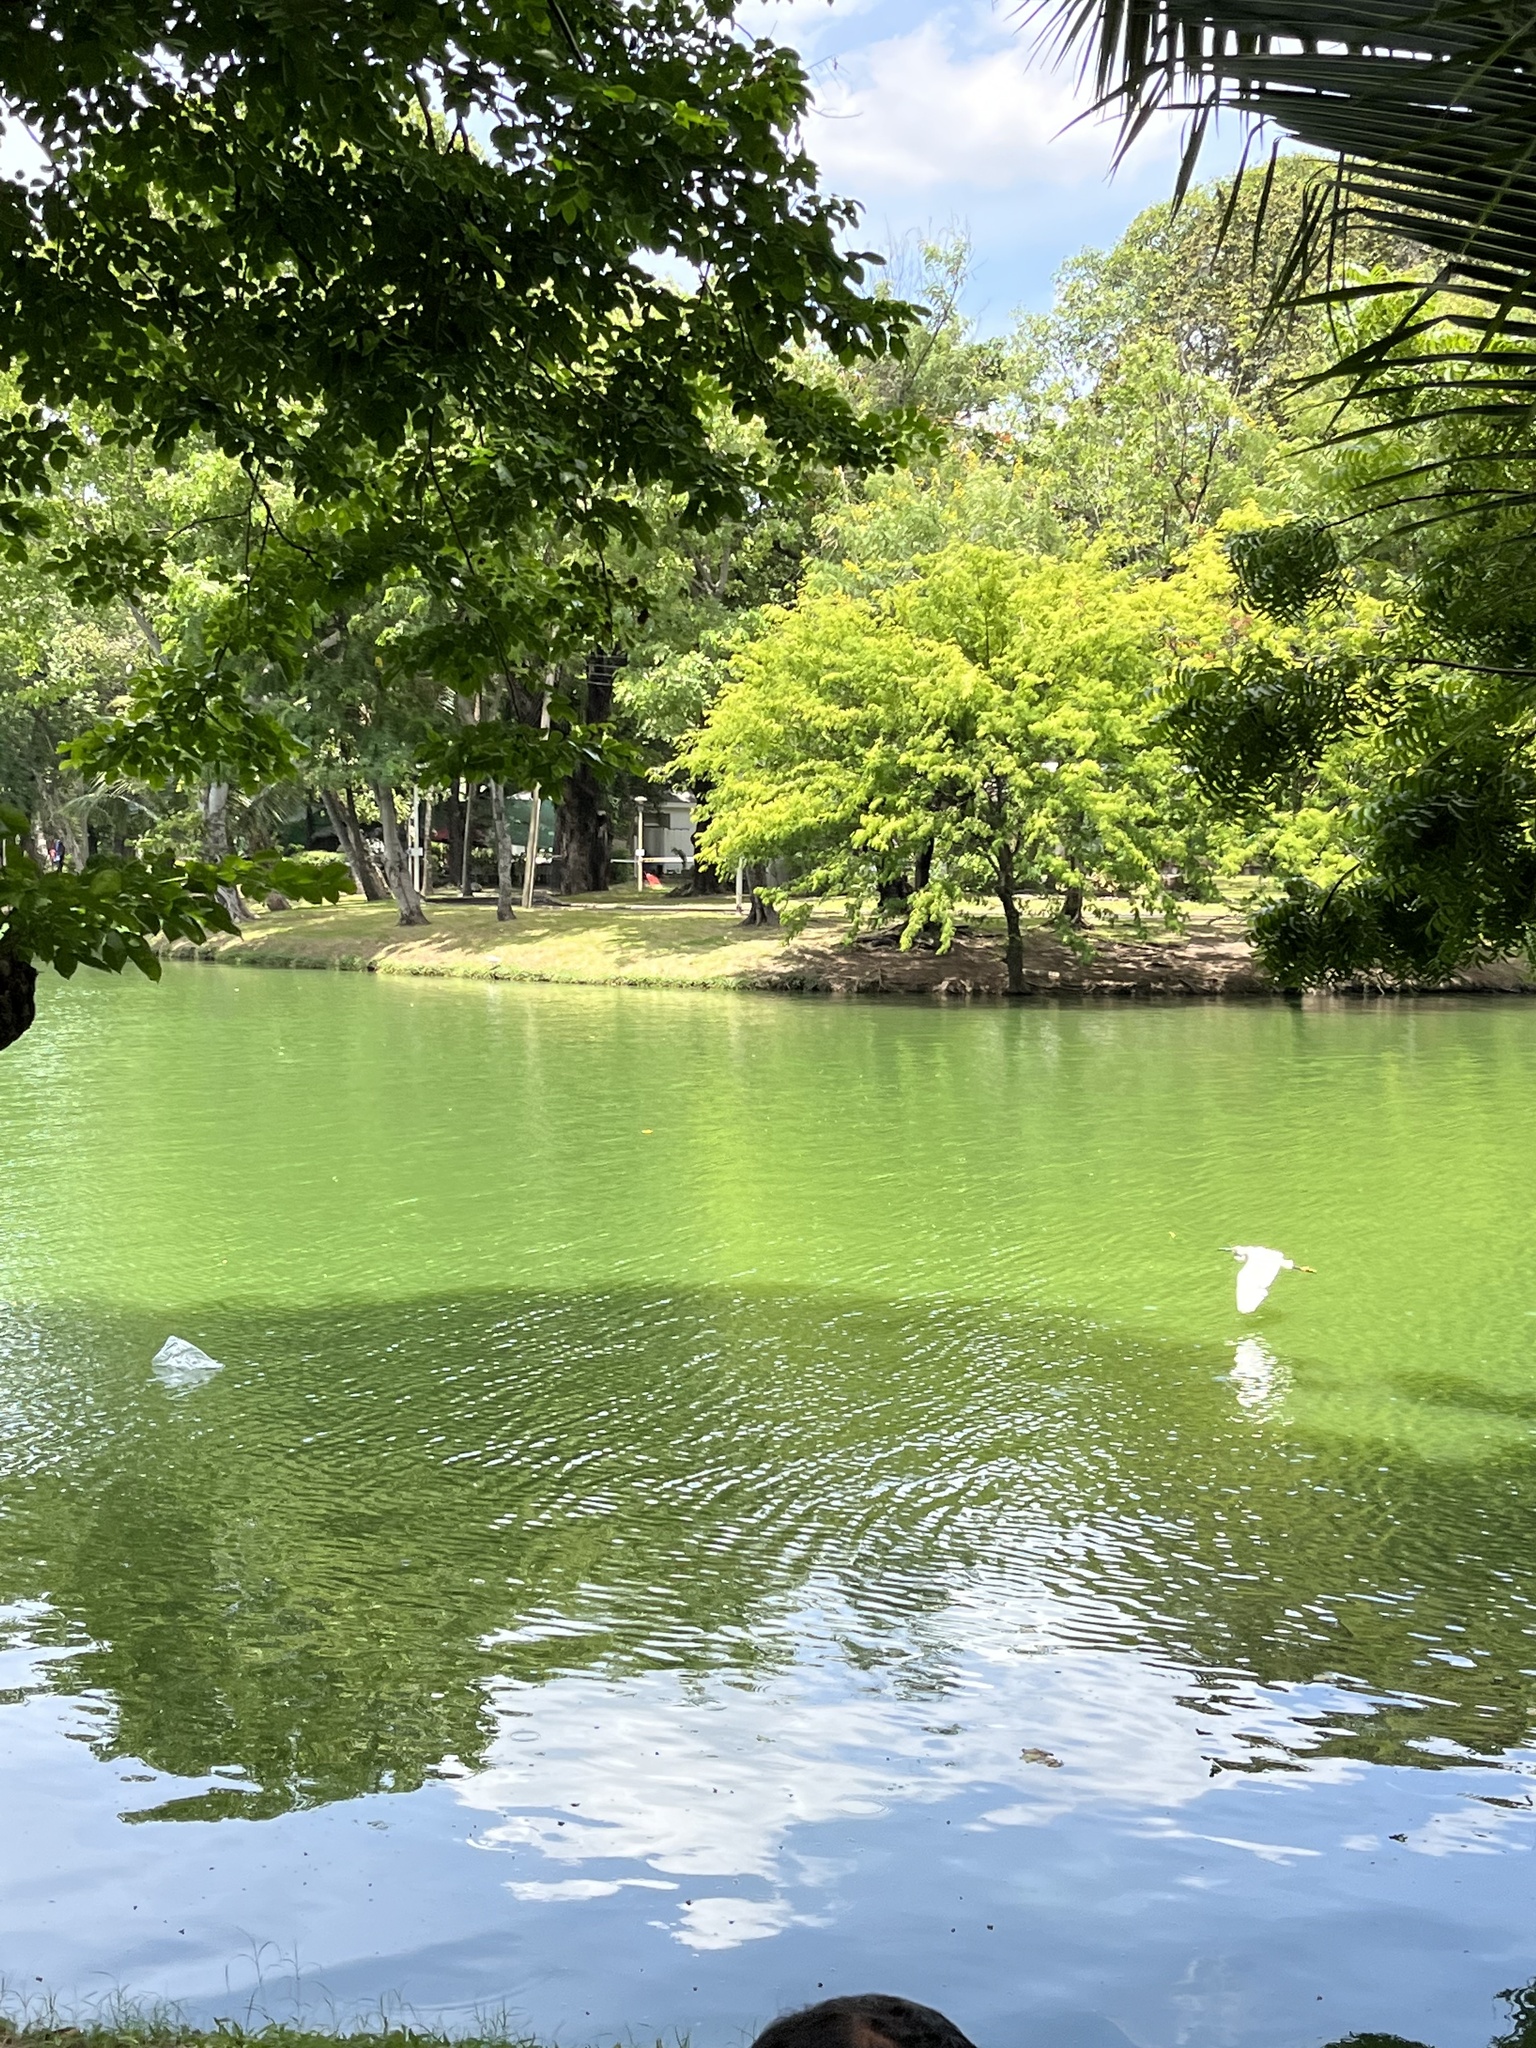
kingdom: Animalia
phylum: Chordata
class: Aves
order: Pelecaniformes
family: Ardeidae
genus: Egretta
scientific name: Egretta garzetta
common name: Little egret
